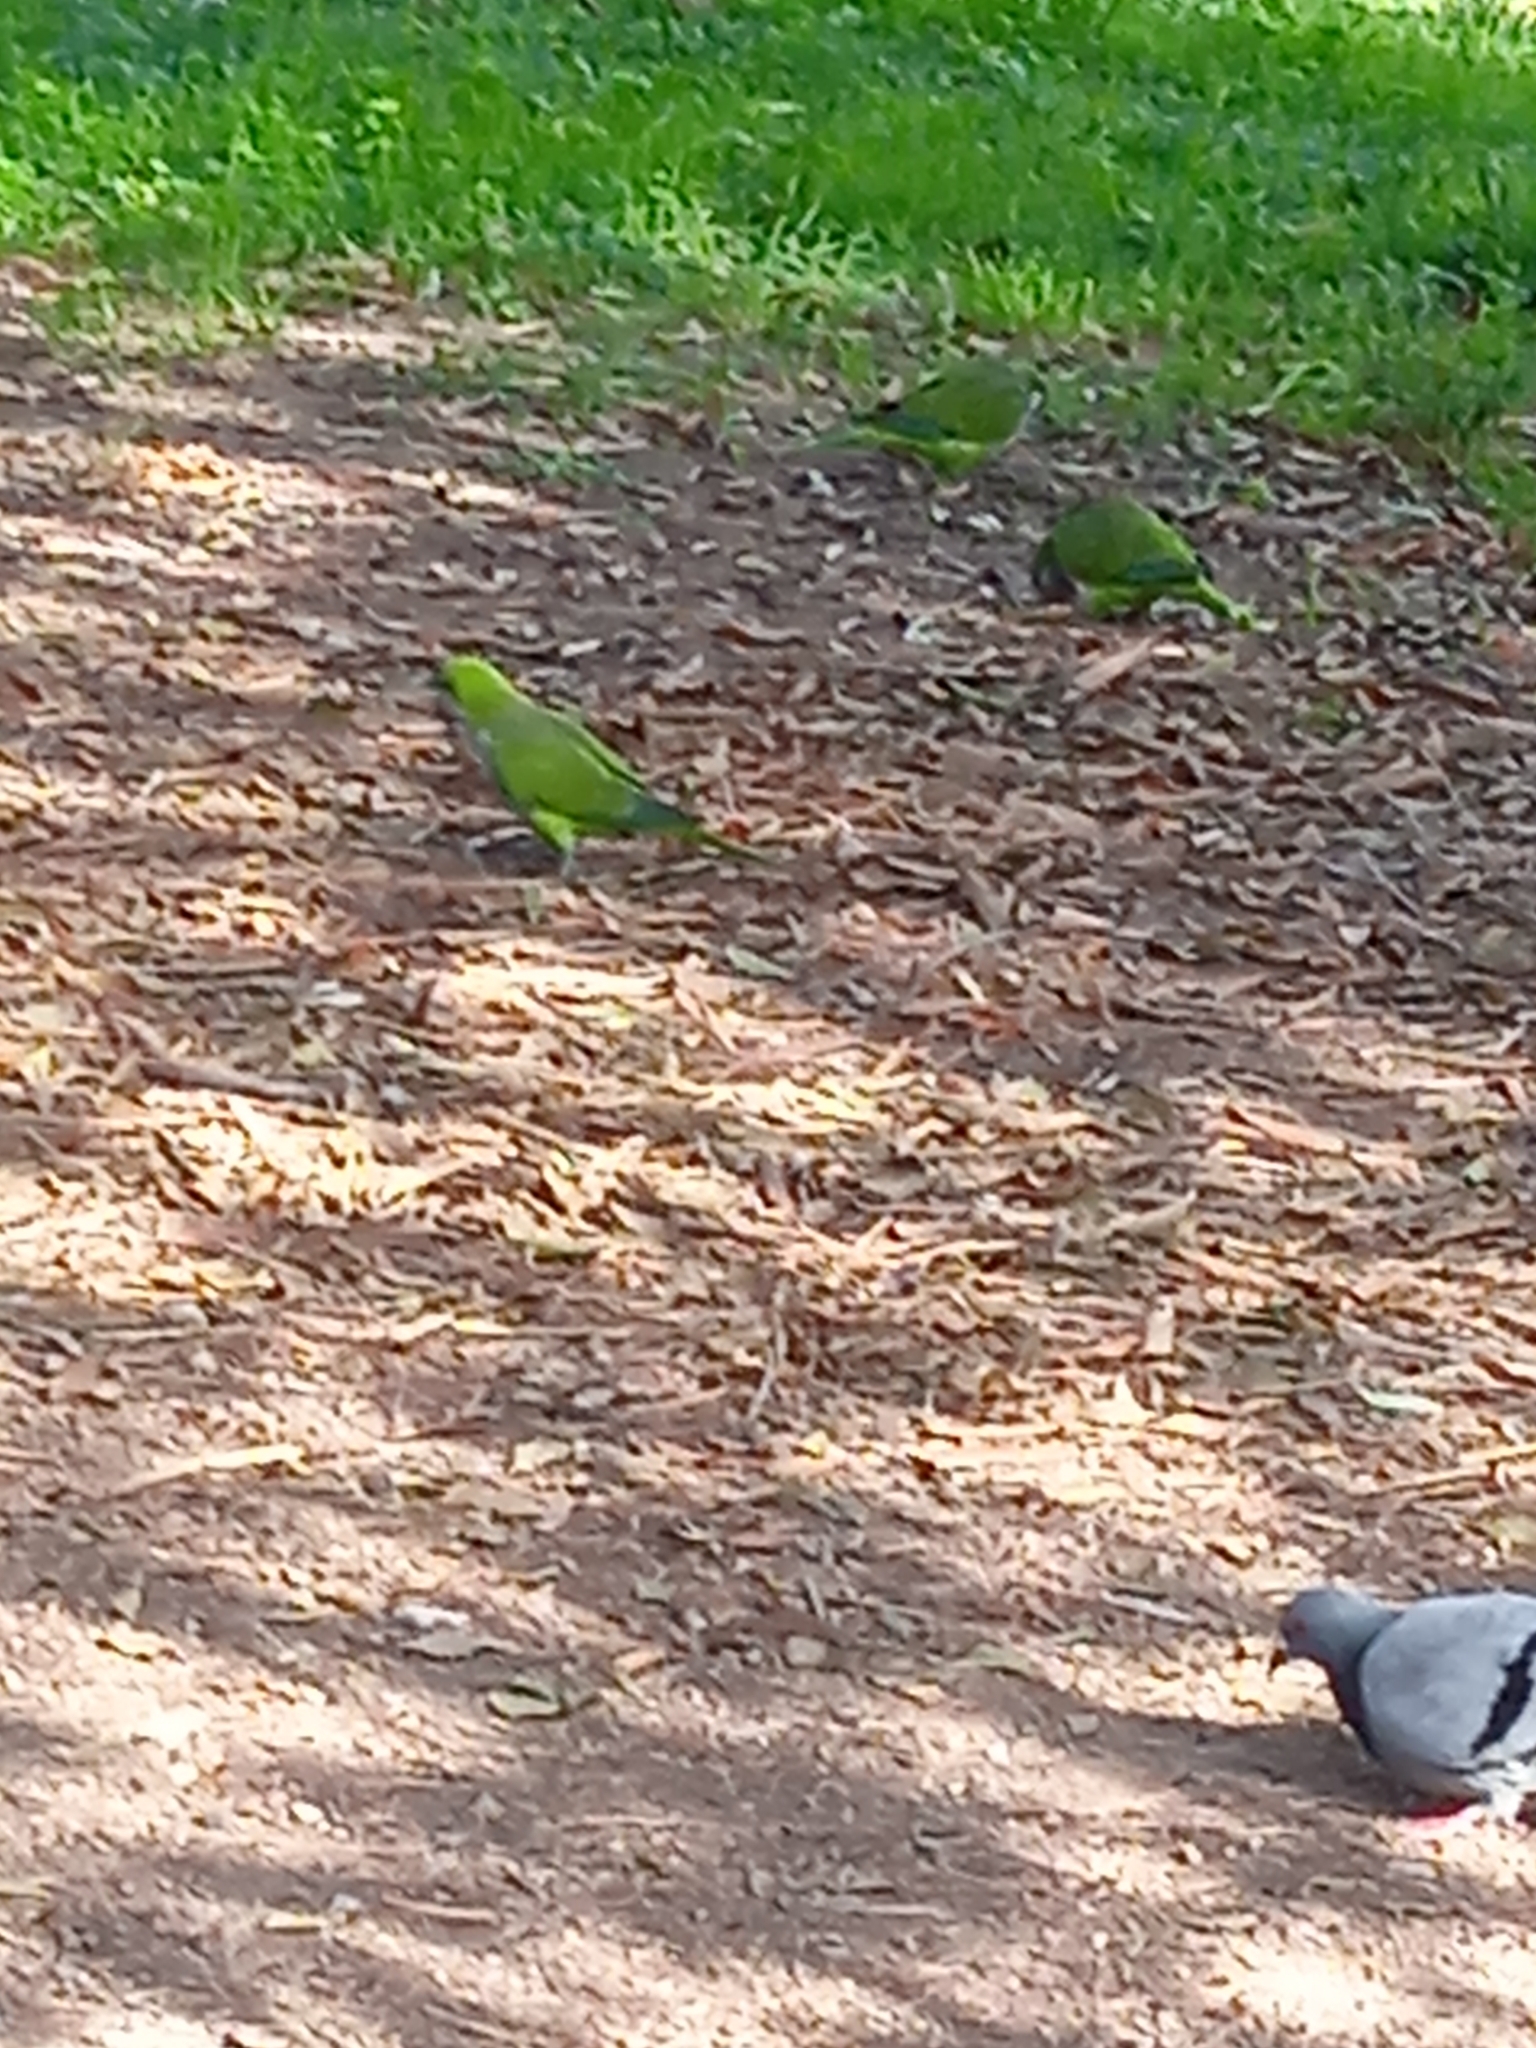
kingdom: Animalia
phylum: Chordata
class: Aves
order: Psittaciformes
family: Psittacidae
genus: Myiopsitta
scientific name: Myiopsitta monachus
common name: Monk parakeet
